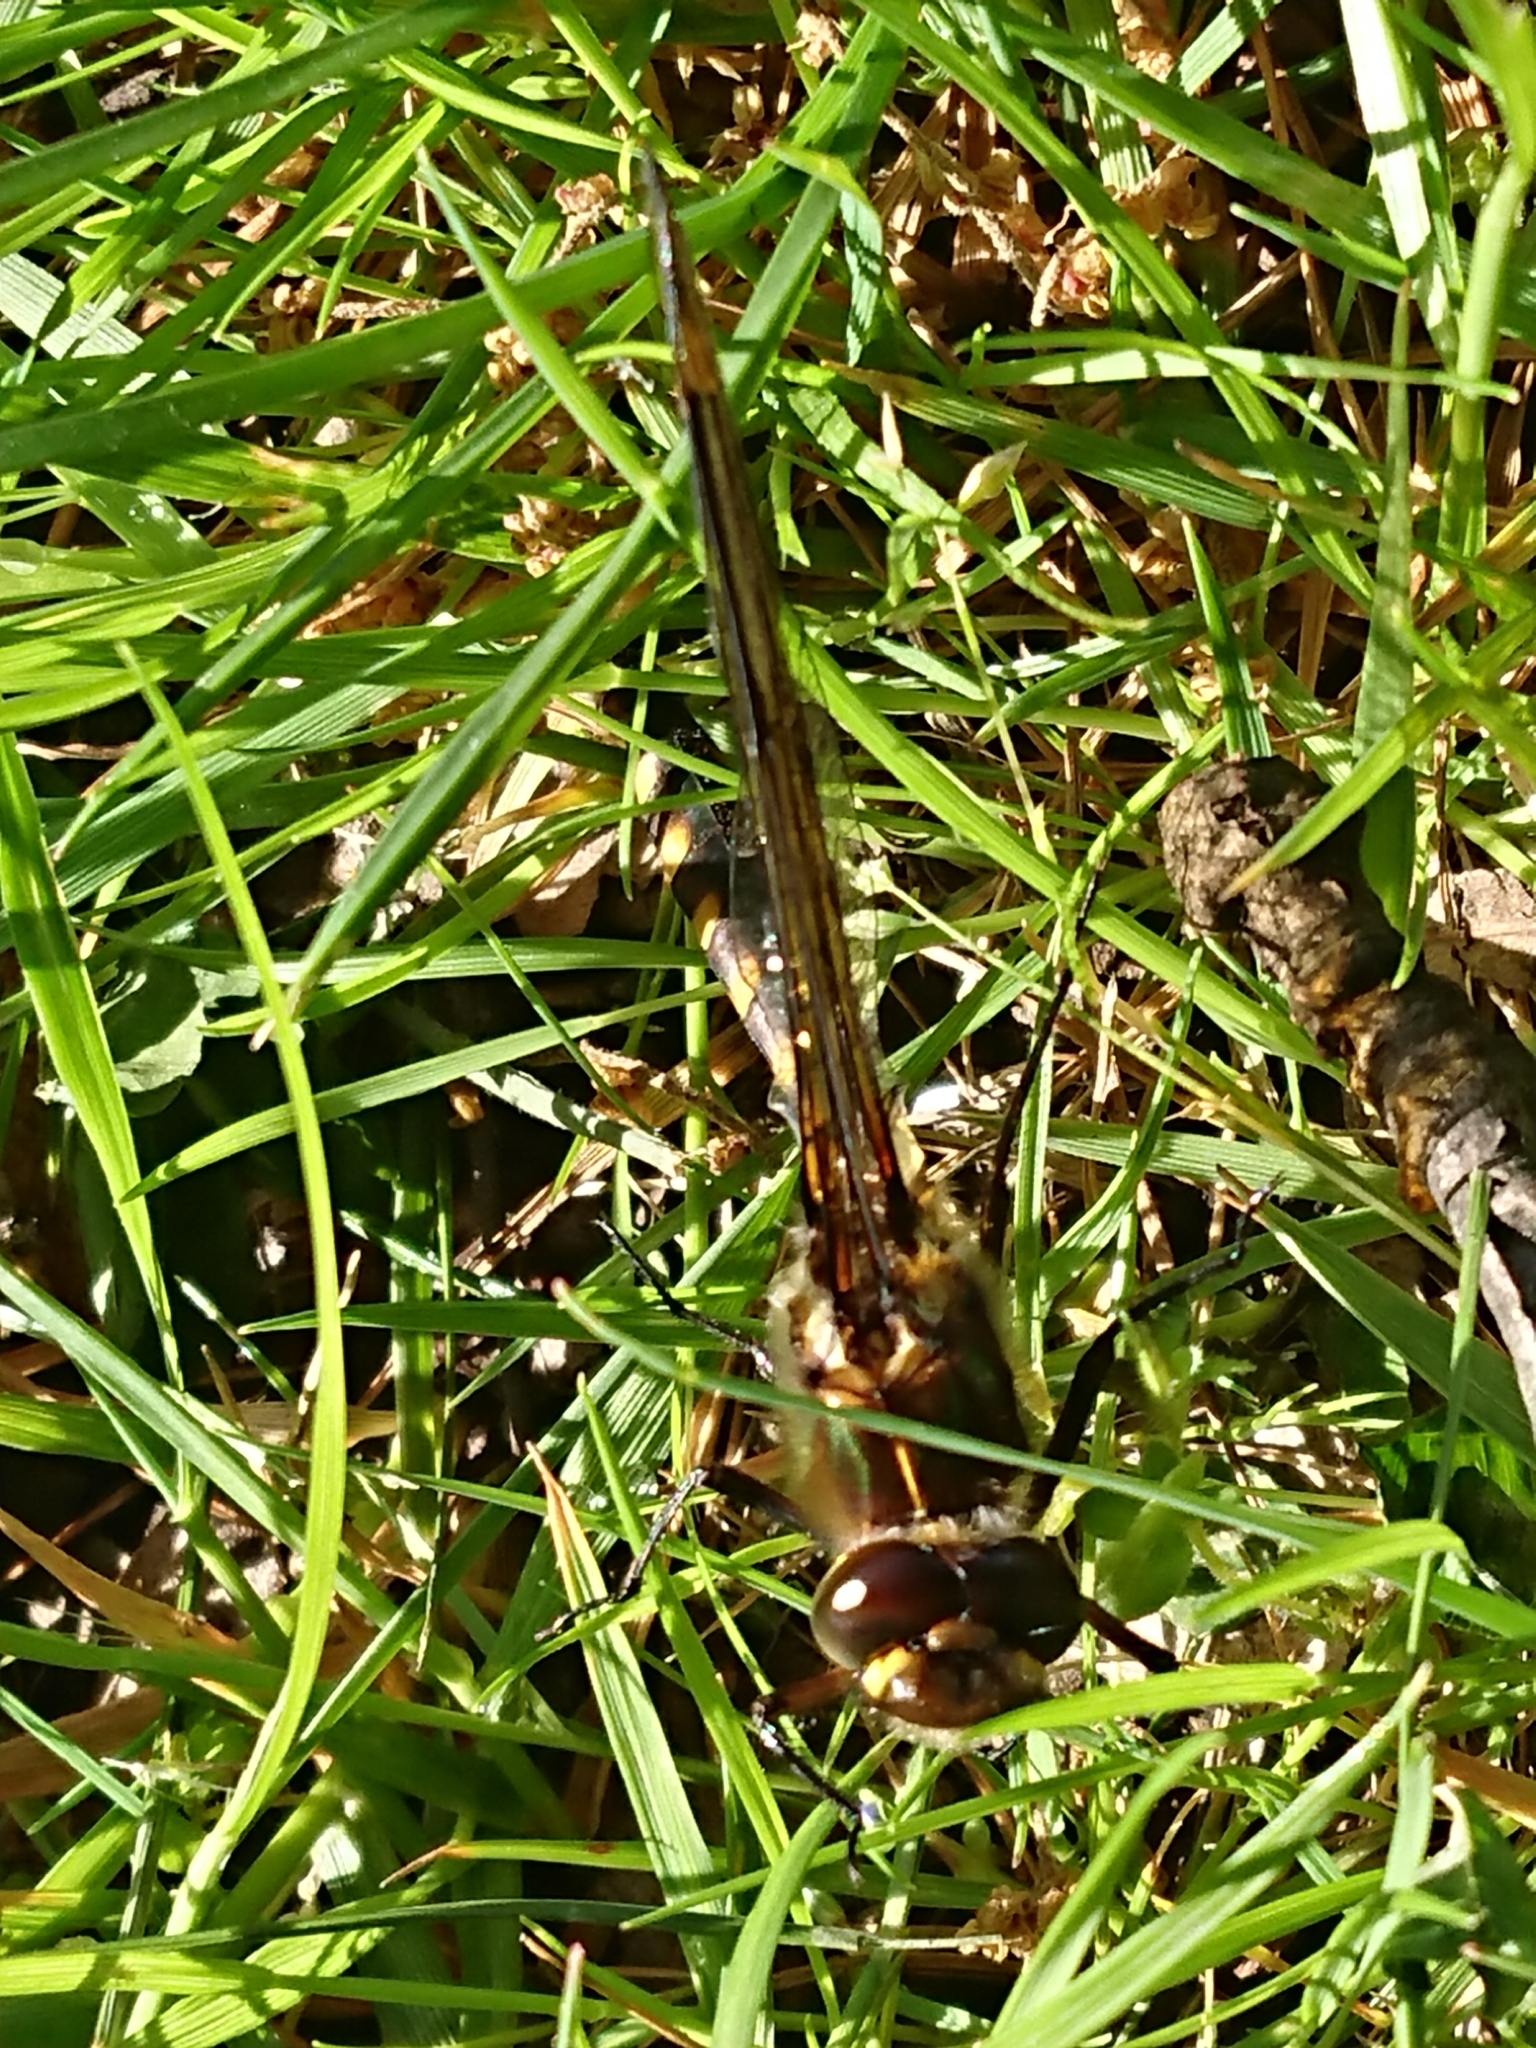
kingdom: Animalia
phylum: Arthropoda
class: Insecta
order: Odonata
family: Corduliidae
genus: Procordulia
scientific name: Procordulia grayi
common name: Yellow spotted dragonfly
